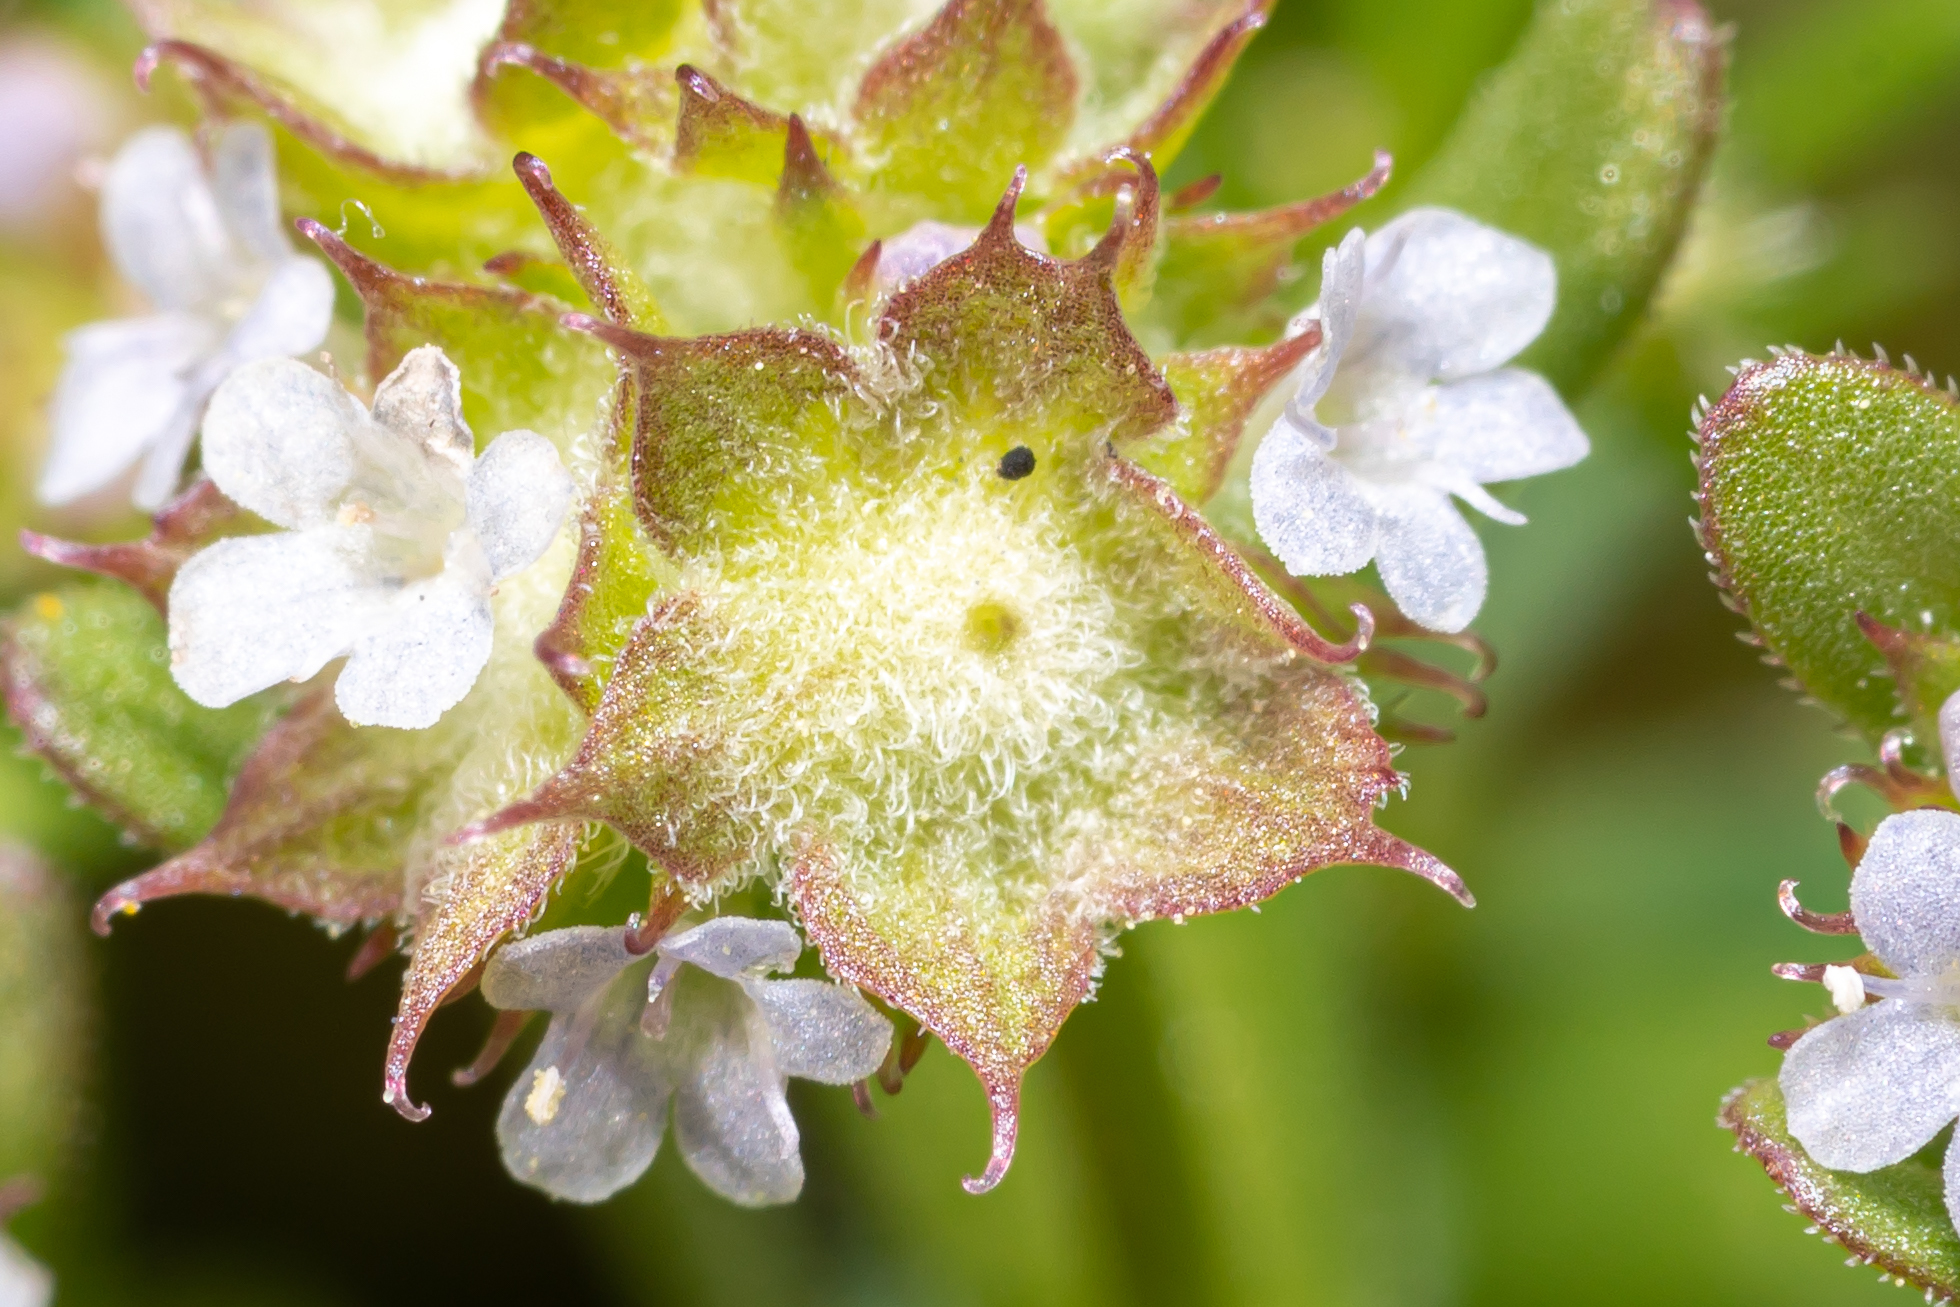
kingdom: Plantae
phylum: Tracheophyta
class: Magnoliopsida
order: Dipsacales
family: Caprifoliaceae
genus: Valerianella
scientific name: Valerianella discoidea
